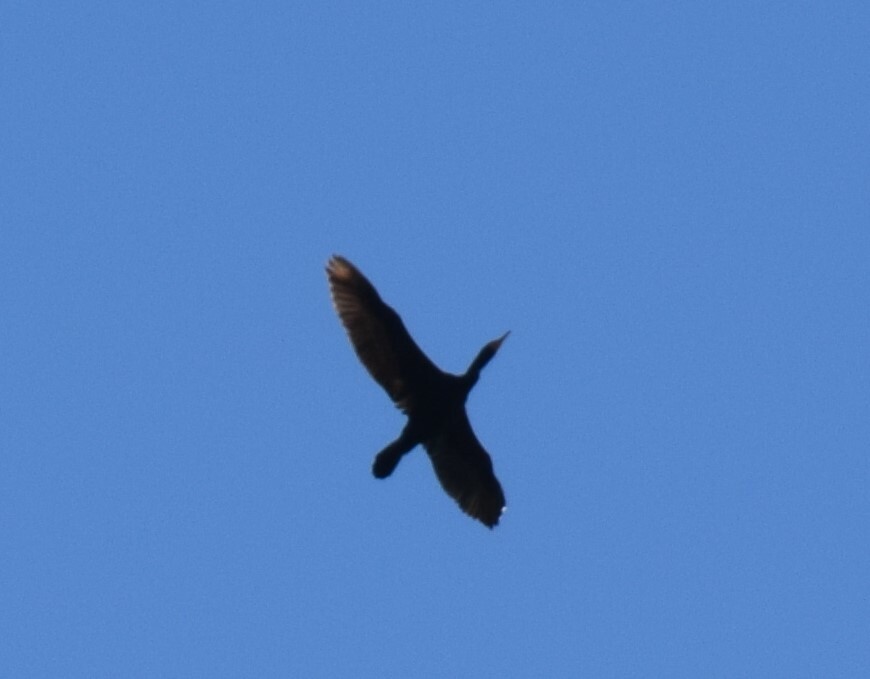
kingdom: Animalia
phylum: Chordata
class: Aves
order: Suliformes
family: Phalacrocoracidae
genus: Phalacrocorax
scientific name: Phalacrocorax auritus
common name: Double-crested cormorant
